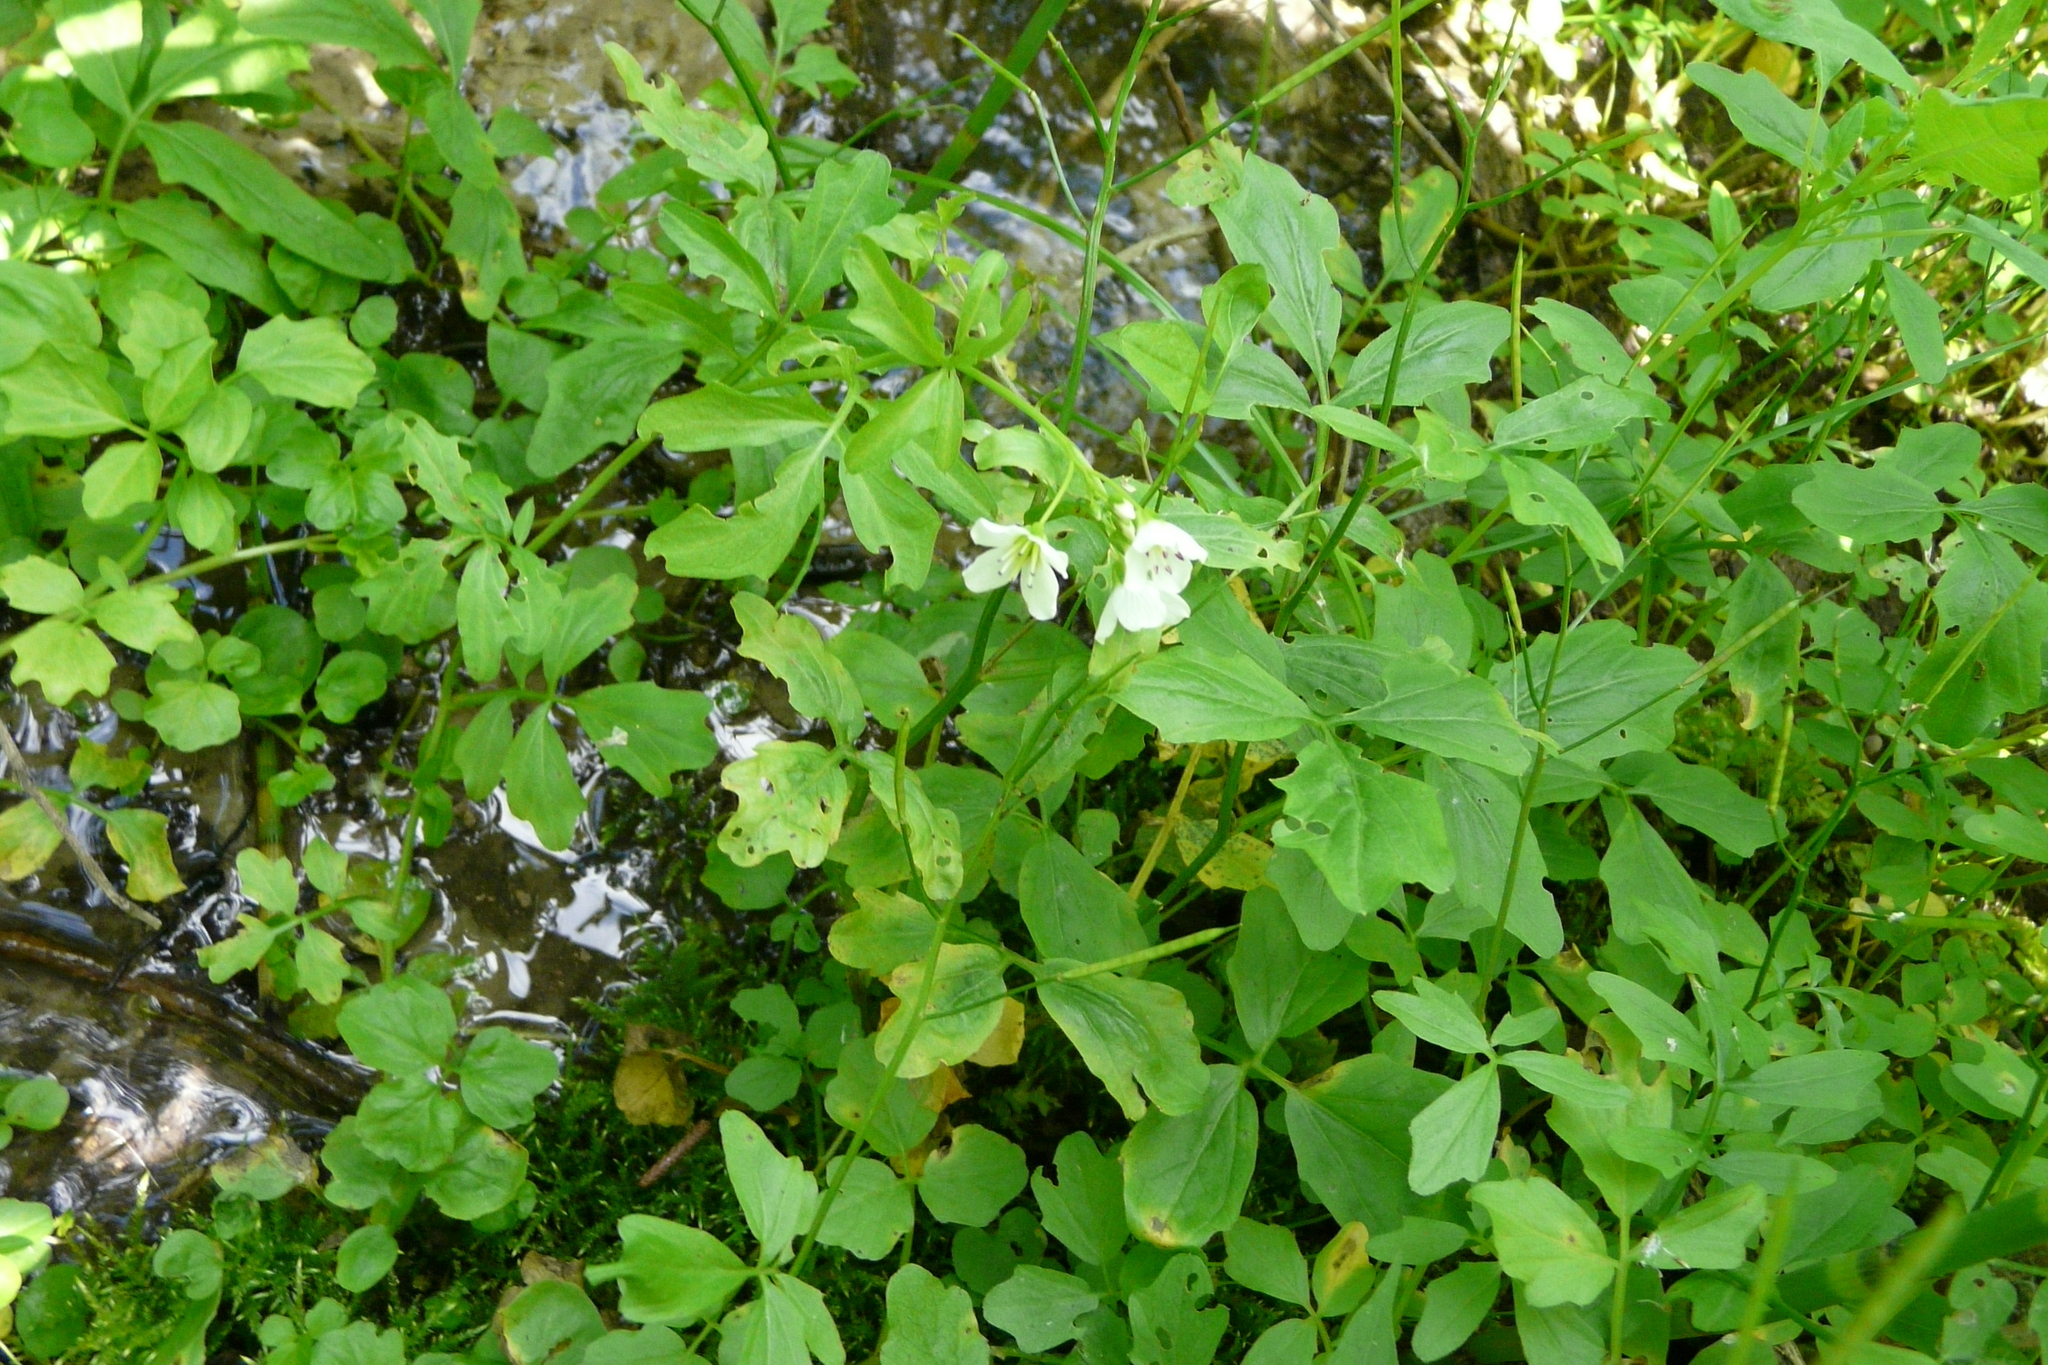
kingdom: Plantae
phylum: Tracheophyta
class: Magnoliopsida
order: Brassicales
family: Brassicaceae
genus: Cardamine
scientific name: Cardamine amara
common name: Large bitter-cress
